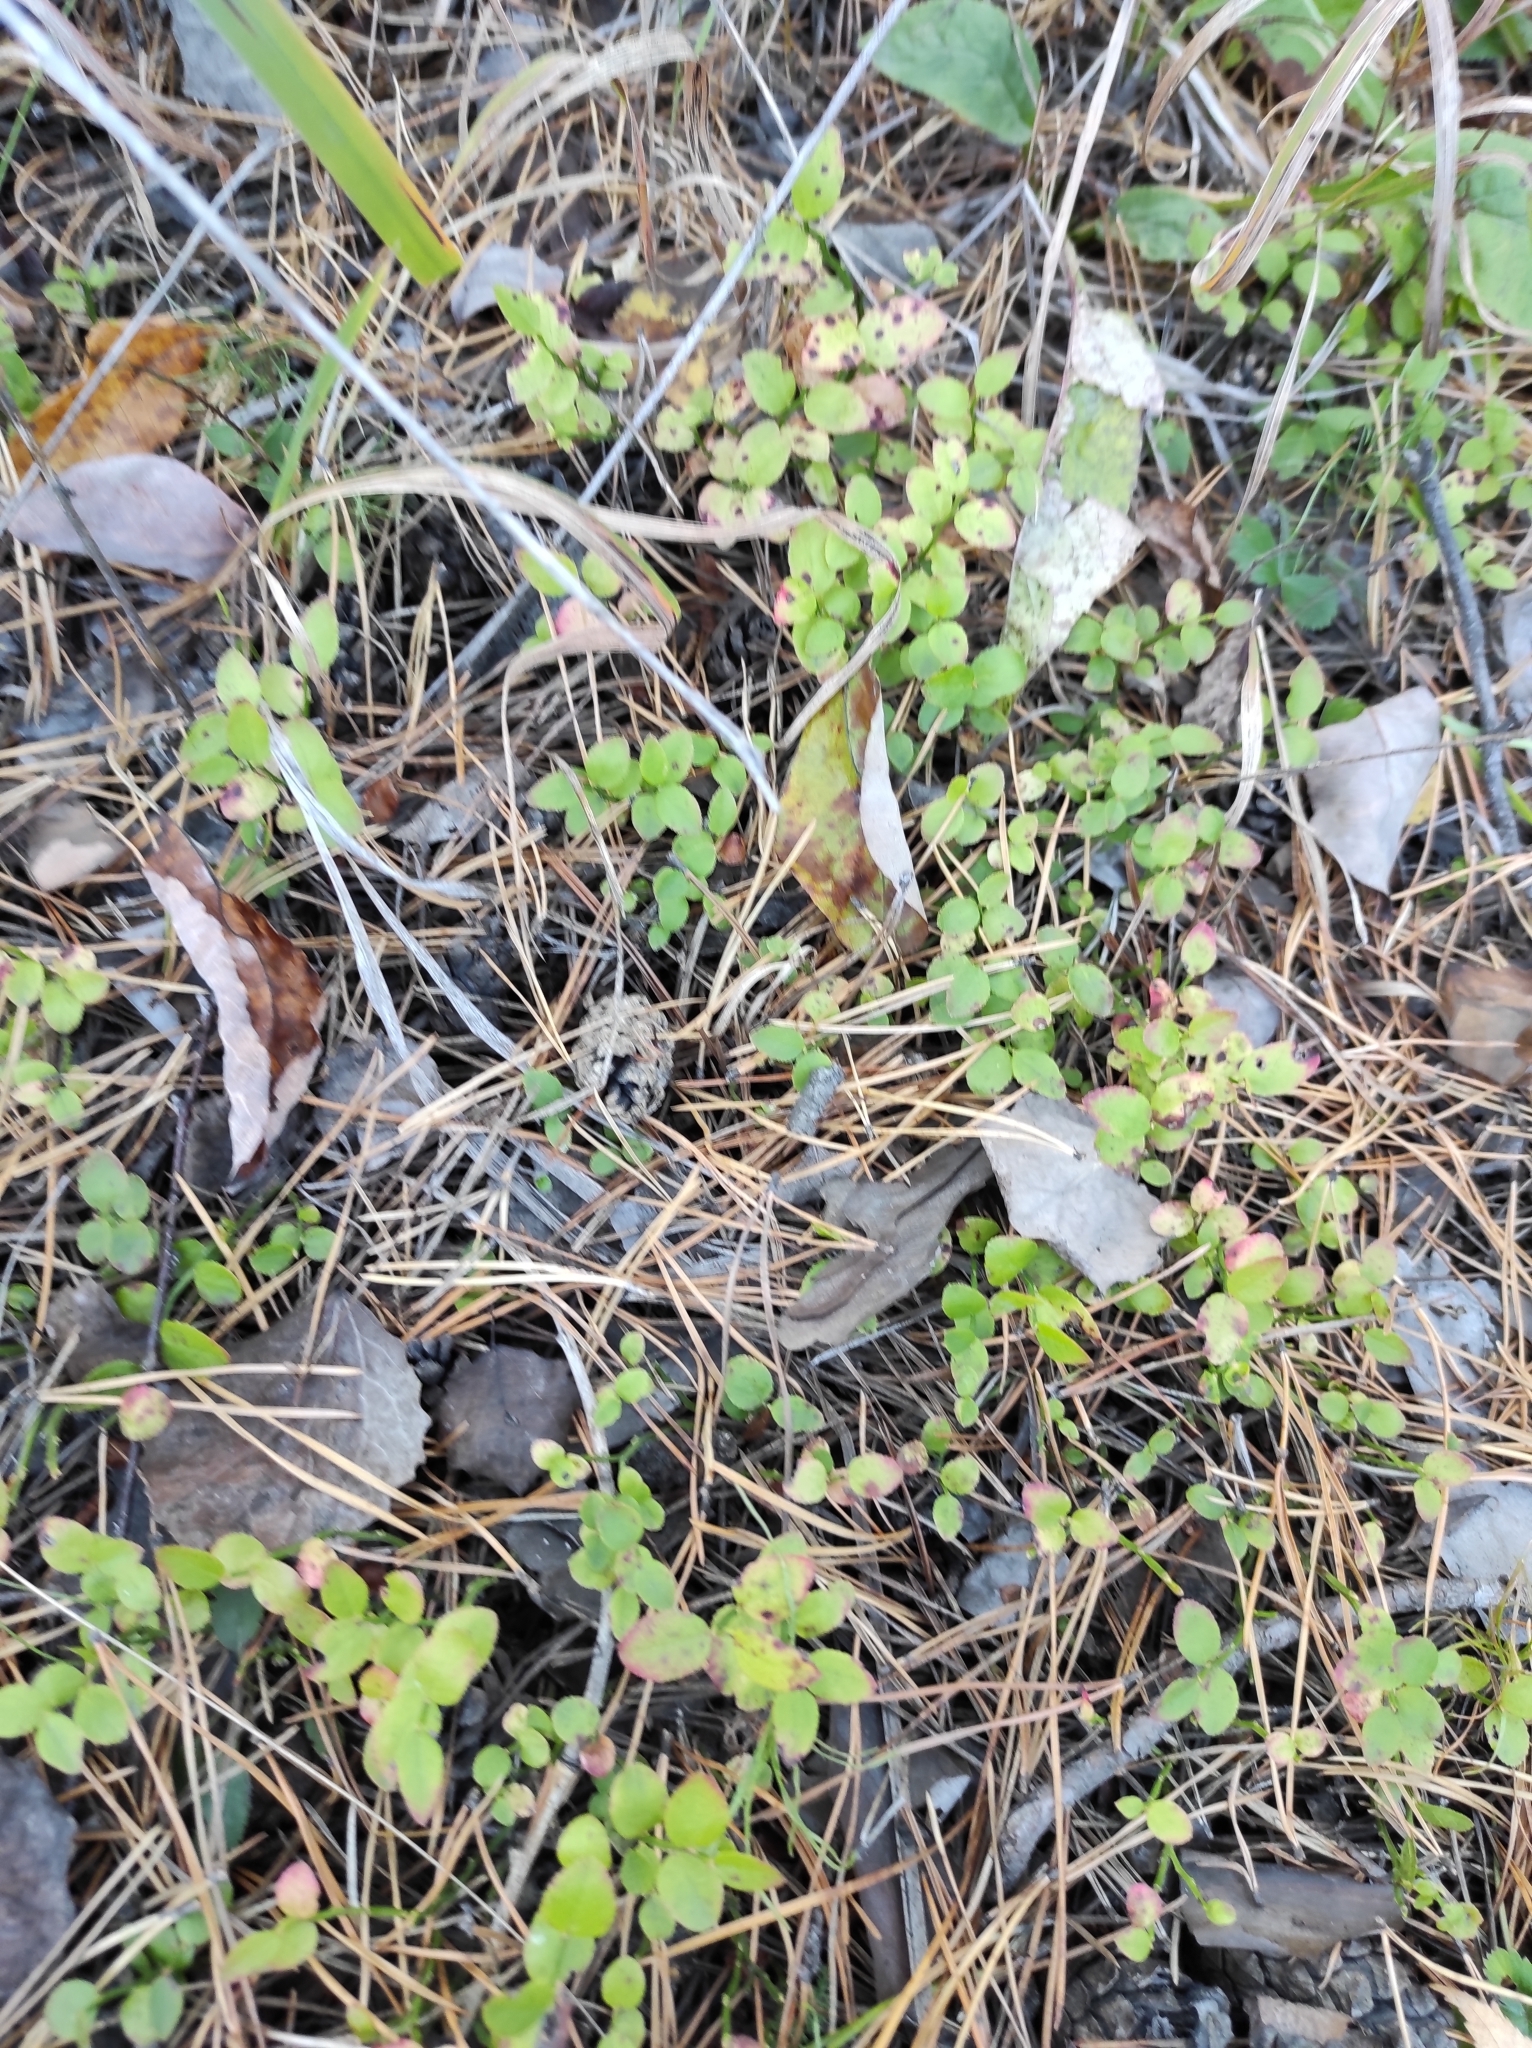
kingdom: Plantae
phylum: Tracheophyta
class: Magnoliopsida
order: Ericales
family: Ericaceae
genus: Vaccinium
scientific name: Vaccinium myrtillus
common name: Bilberry
